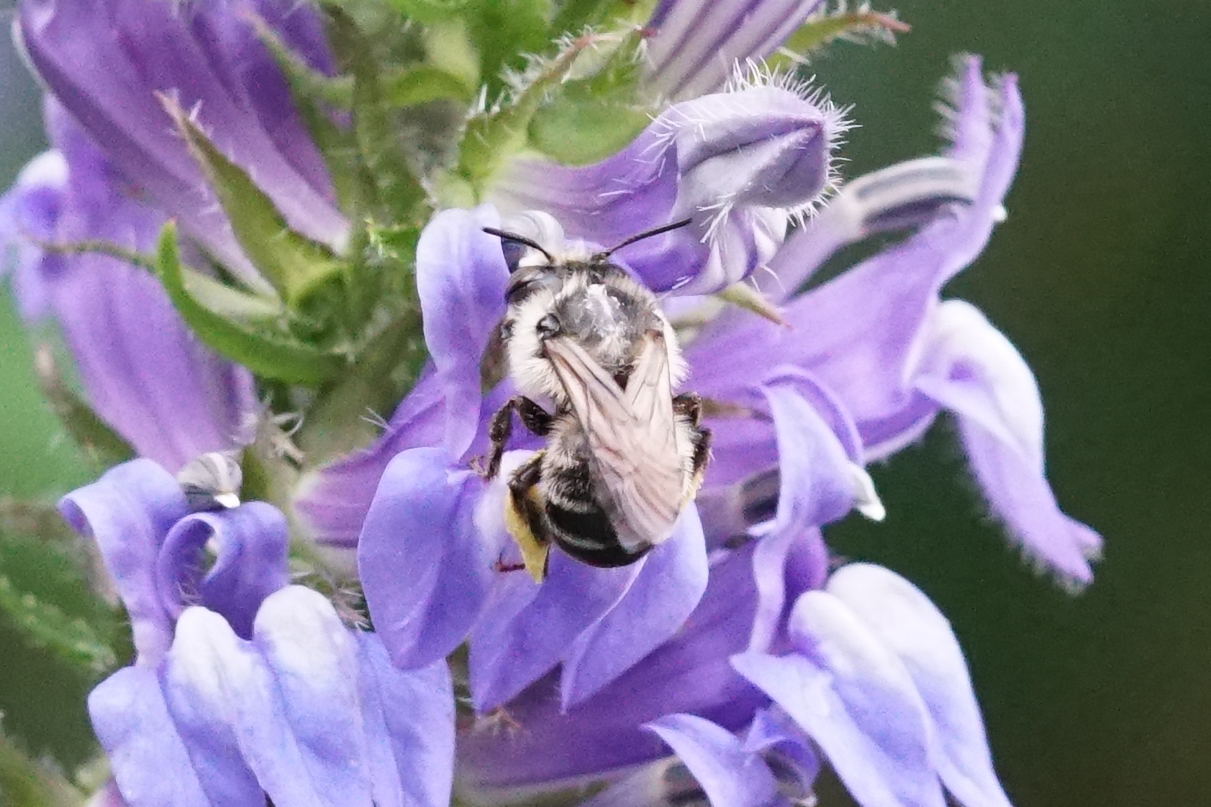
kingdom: Animalia
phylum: Arthropoda
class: Insecta
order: Hymenoptera
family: Apidae
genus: Anthophora
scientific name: Anthophora terminalis
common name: Orange-tipped wood-digger bee
